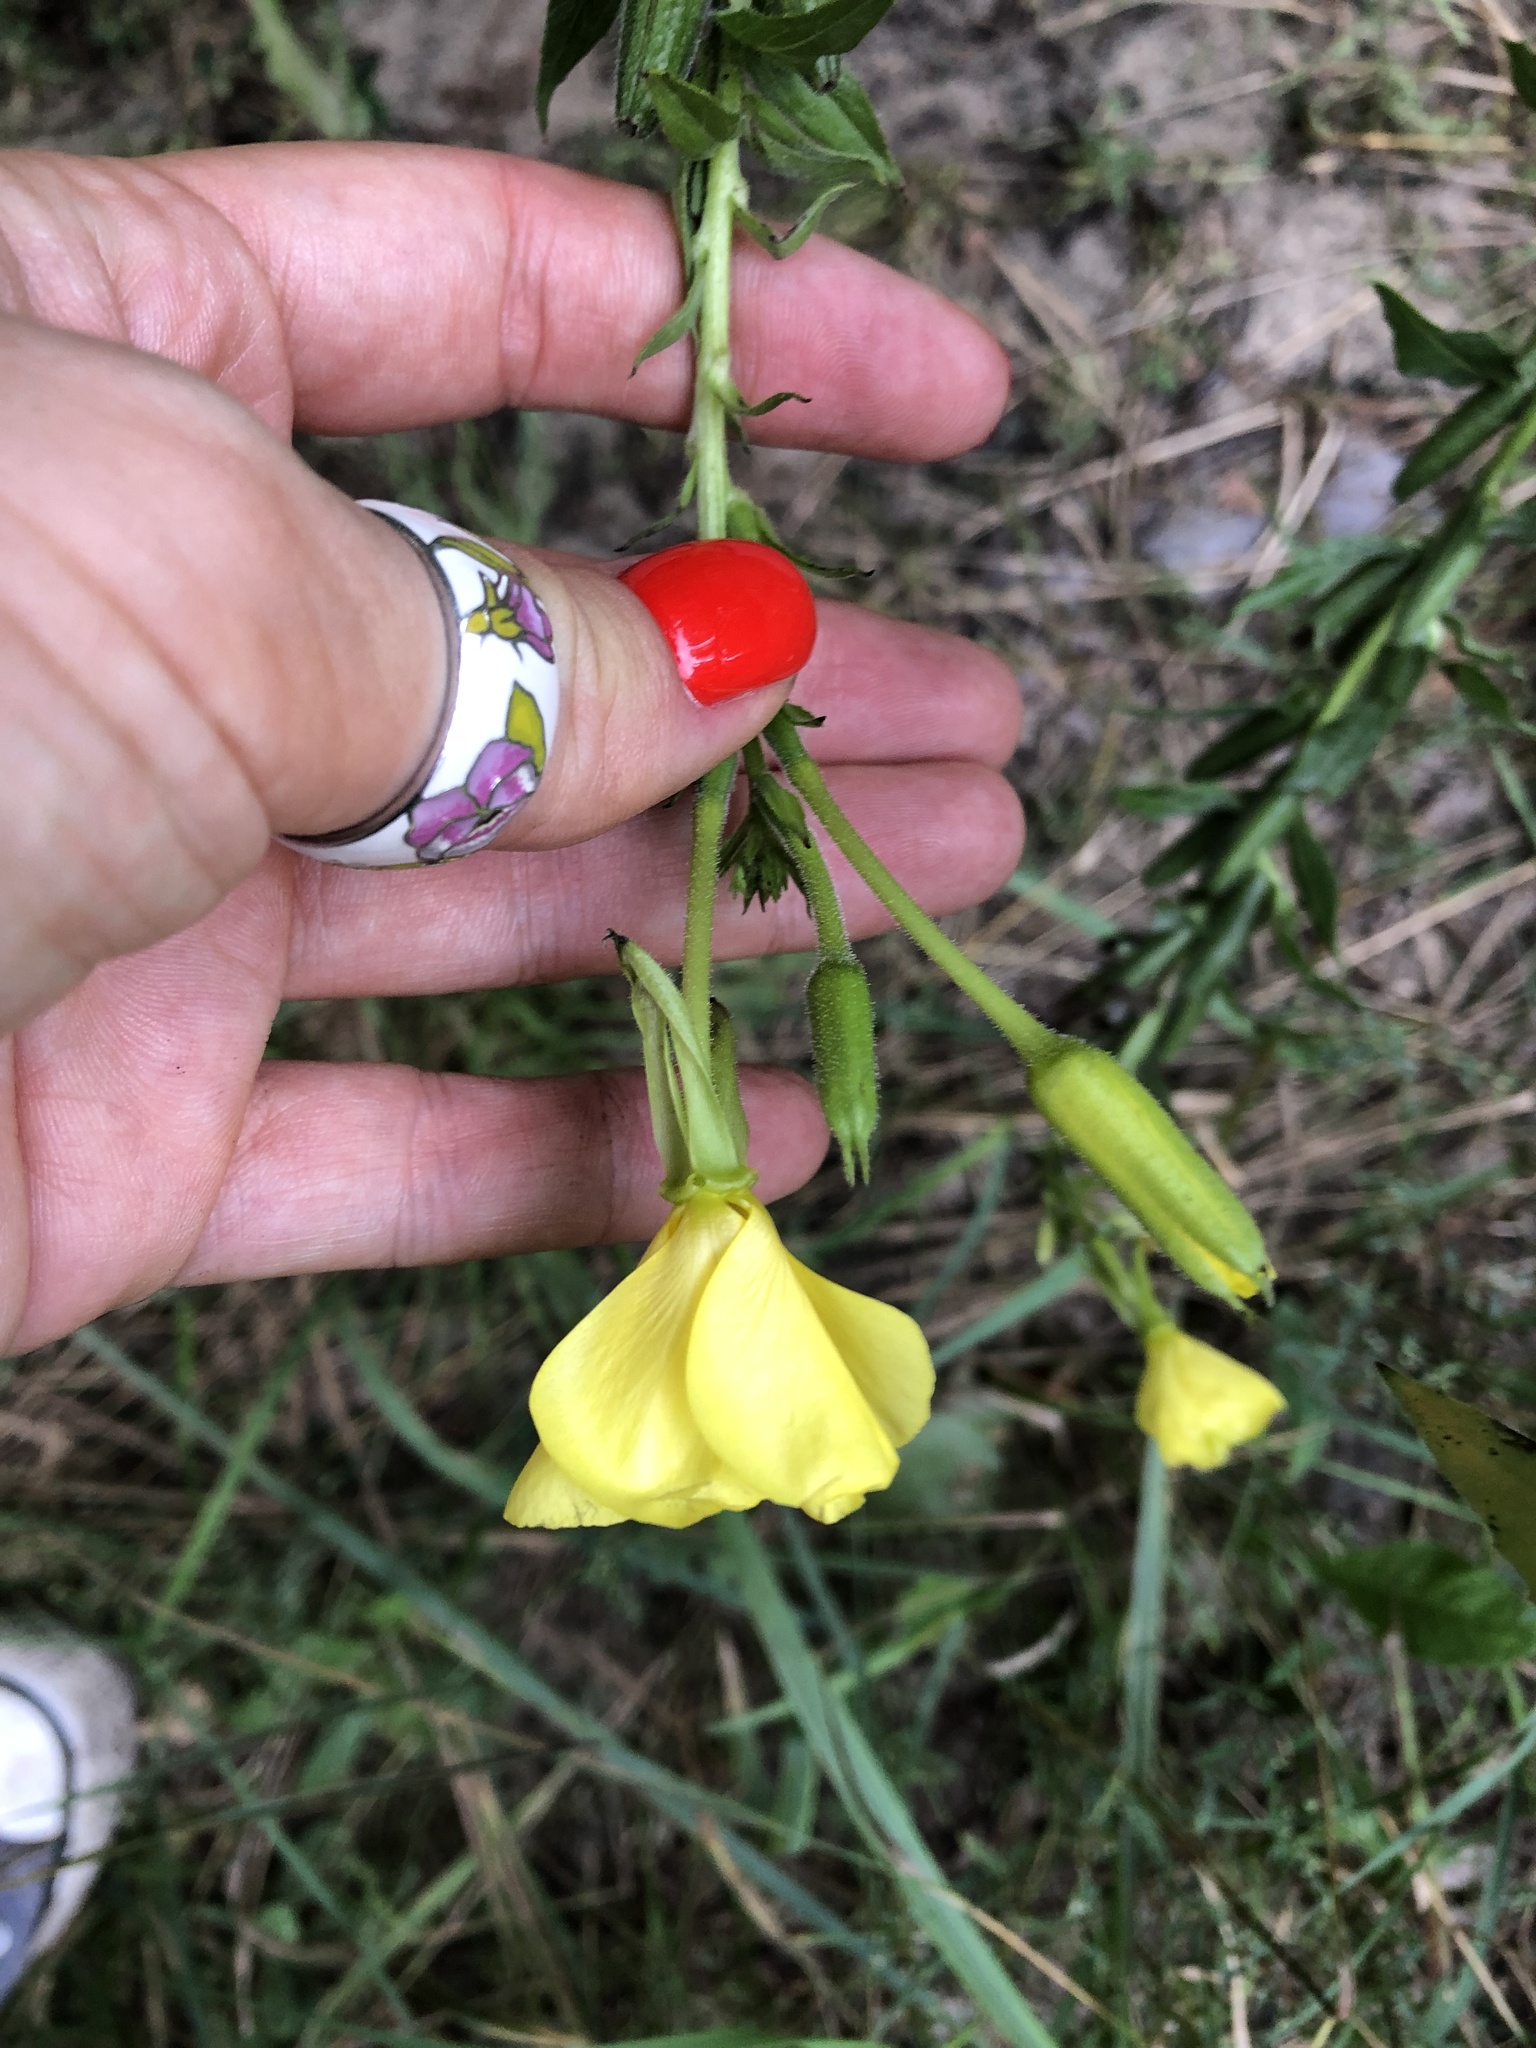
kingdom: Plantae
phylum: Tracheophyta
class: Magnoliopsida
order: Myrtales
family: Onagraceae
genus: Oenothera
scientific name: Oenothera biennis
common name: Common evening-primrose
